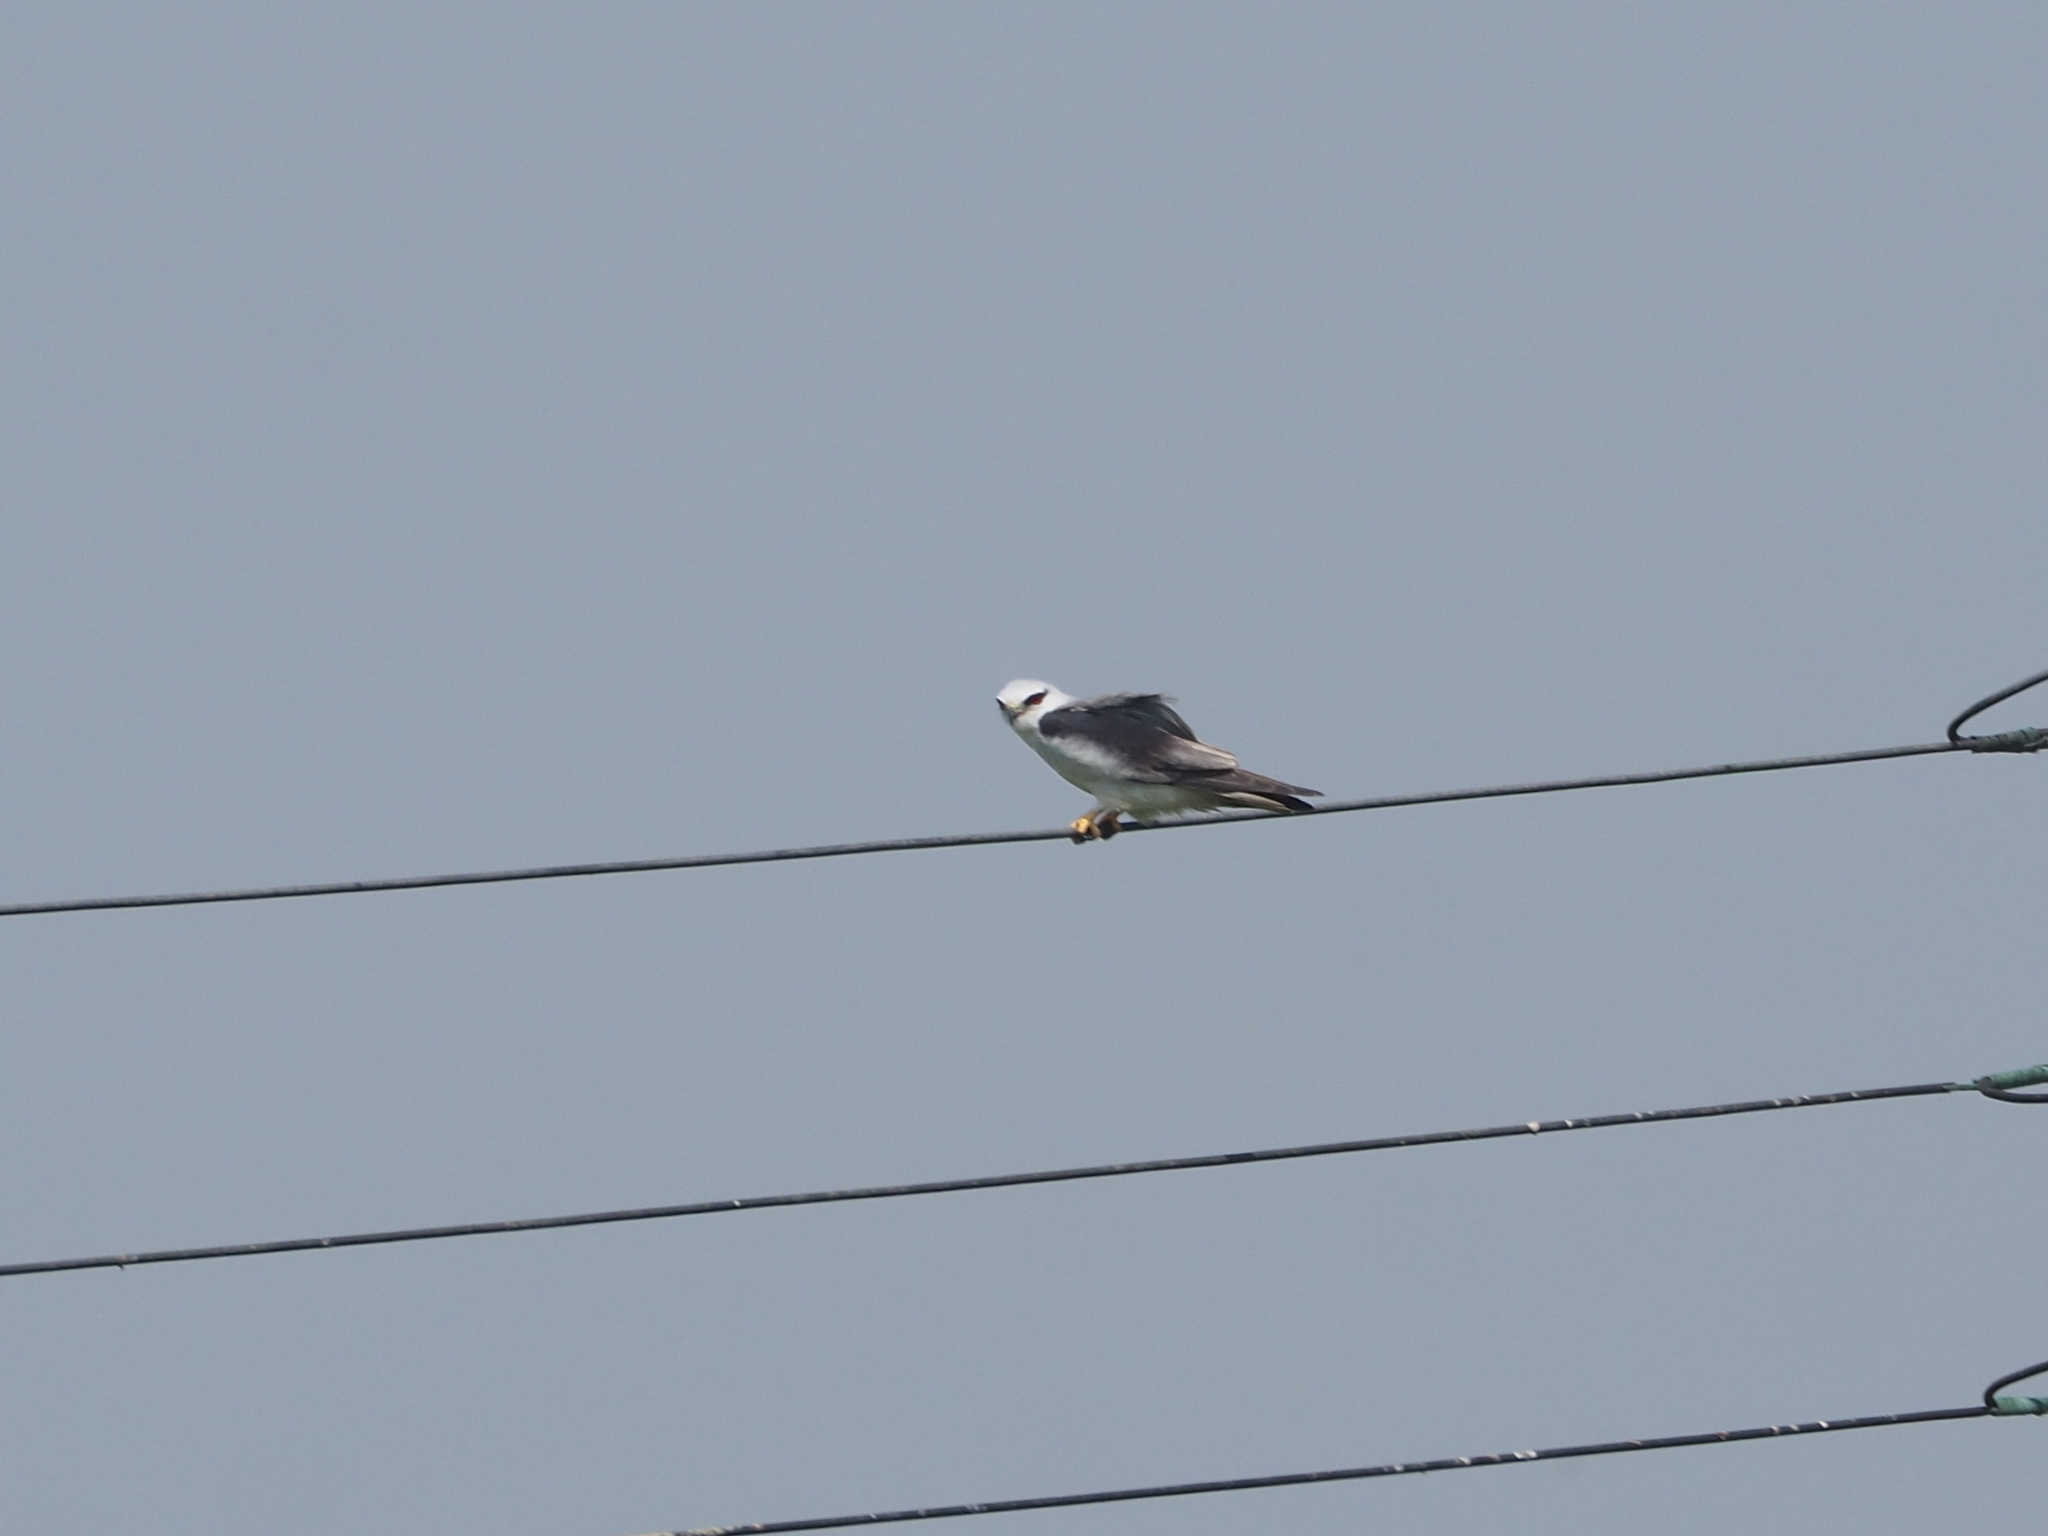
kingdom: Animalia
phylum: Chordata
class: Aves
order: Accipitriformes
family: Accipitridae
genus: Elanus
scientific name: Elanus caeruleus
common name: Black-winged kite
